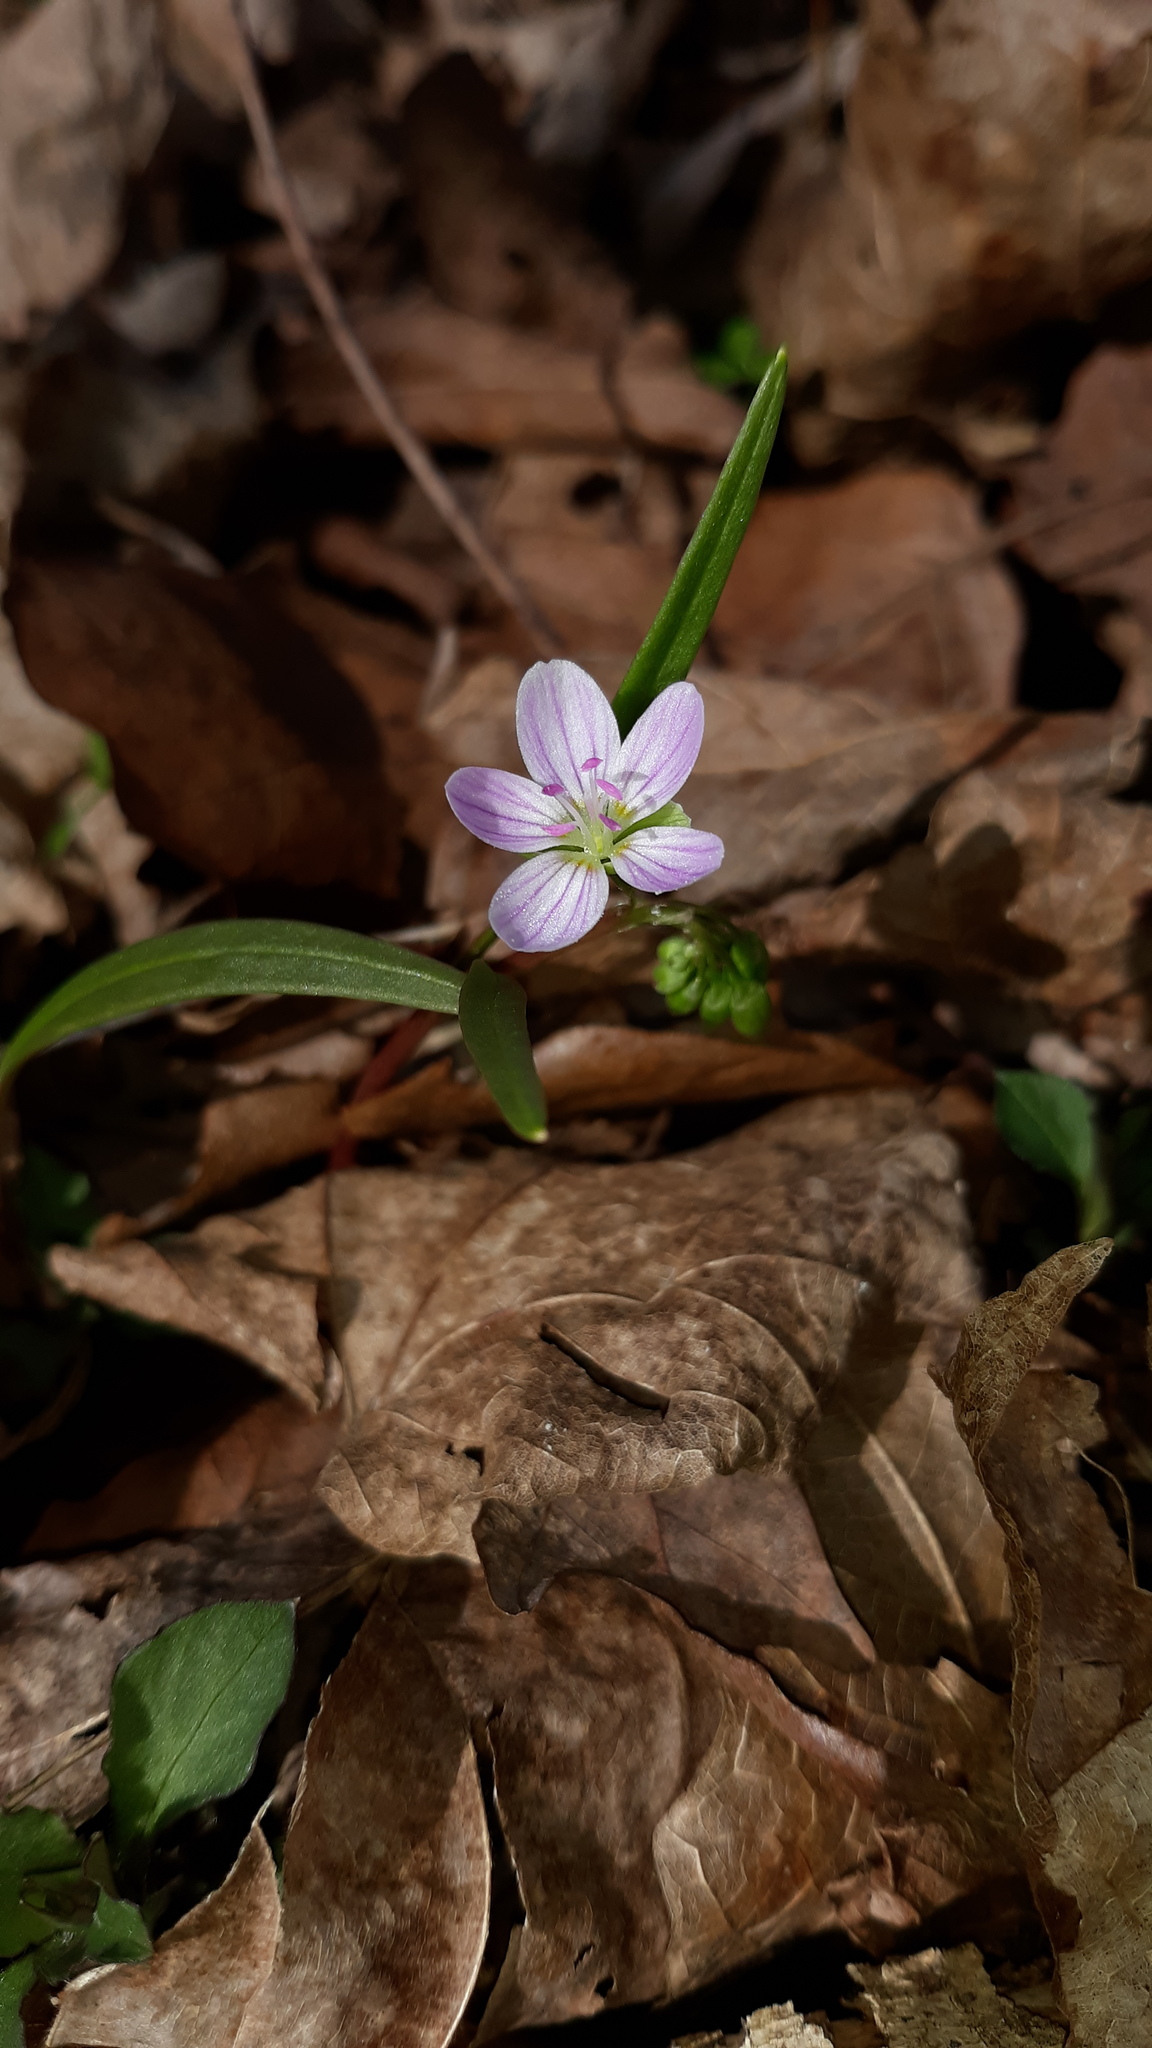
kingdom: Plantae
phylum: Tracheophyta
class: Magnoliopsida
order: Caryophyllales
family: Montiaceae
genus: Claytonia
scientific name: Claytonia virginica
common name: Virginia springbeauty
